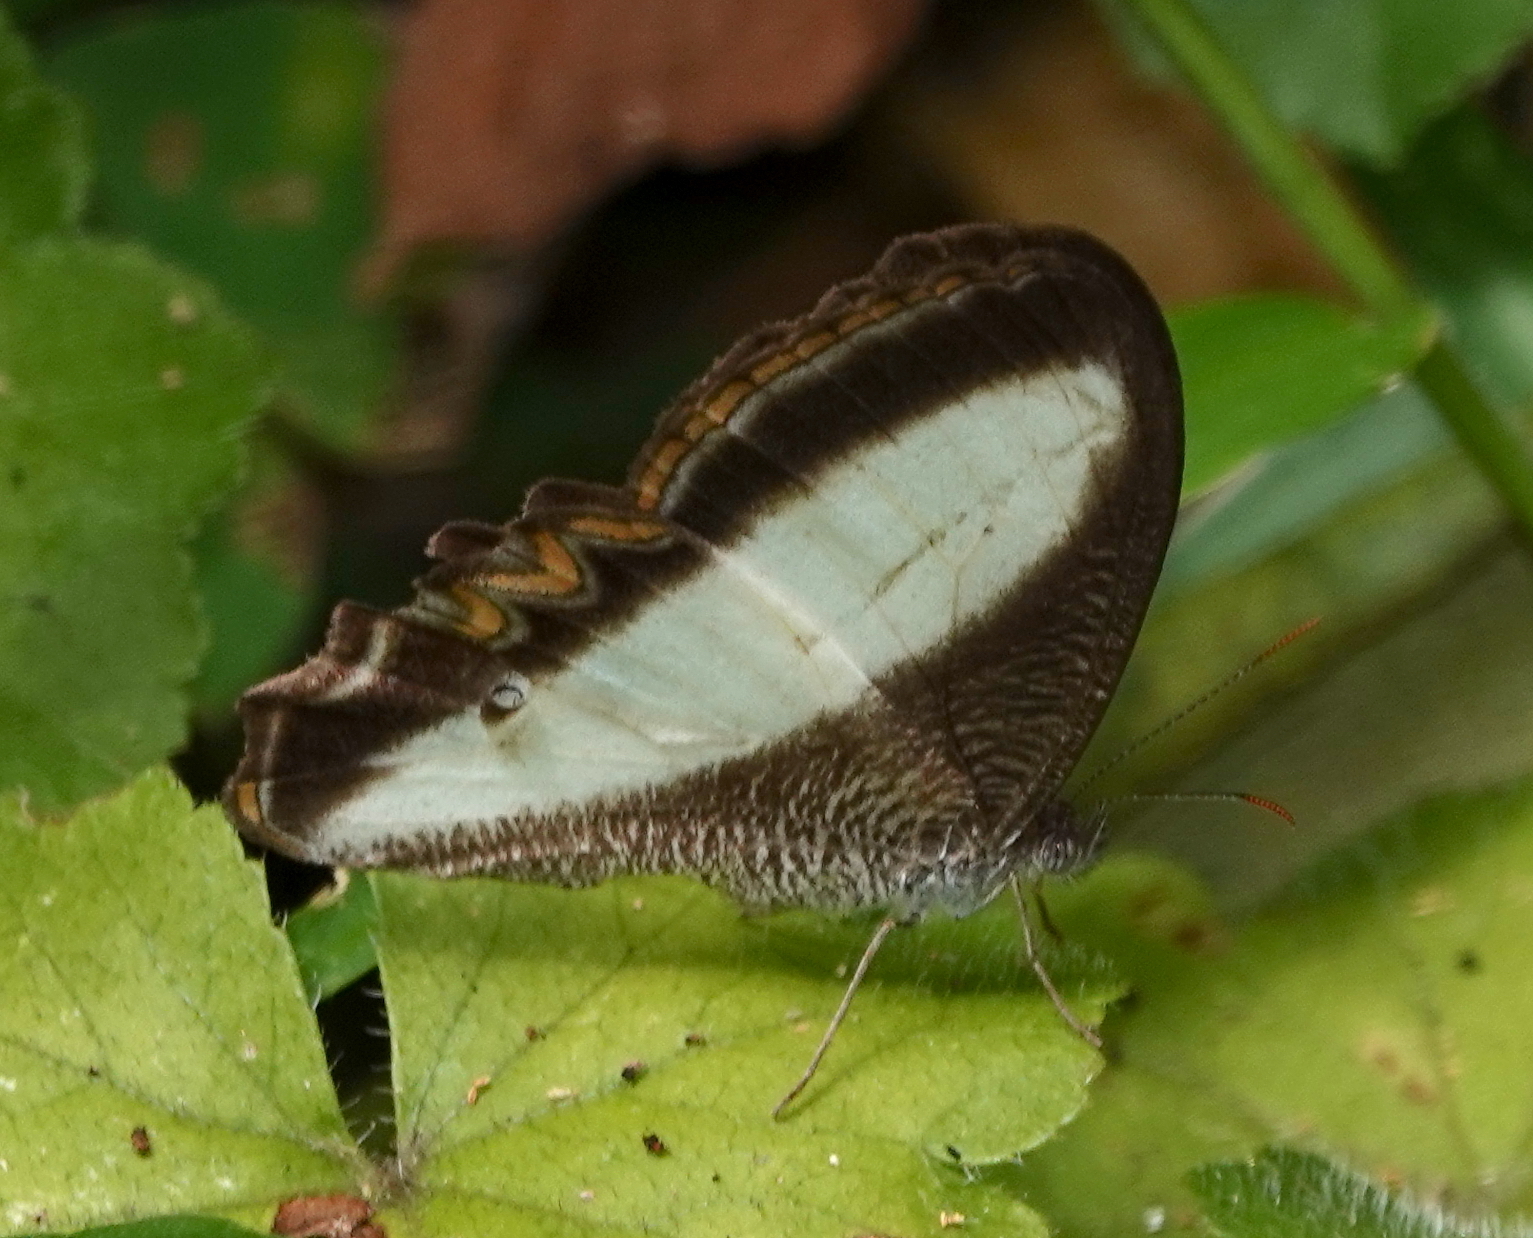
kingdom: Animalia
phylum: Arthropoda
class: Insecta
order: Lepidoptera
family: Nymphalidae
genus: Oressinoma
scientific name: Oressinoma typhla
